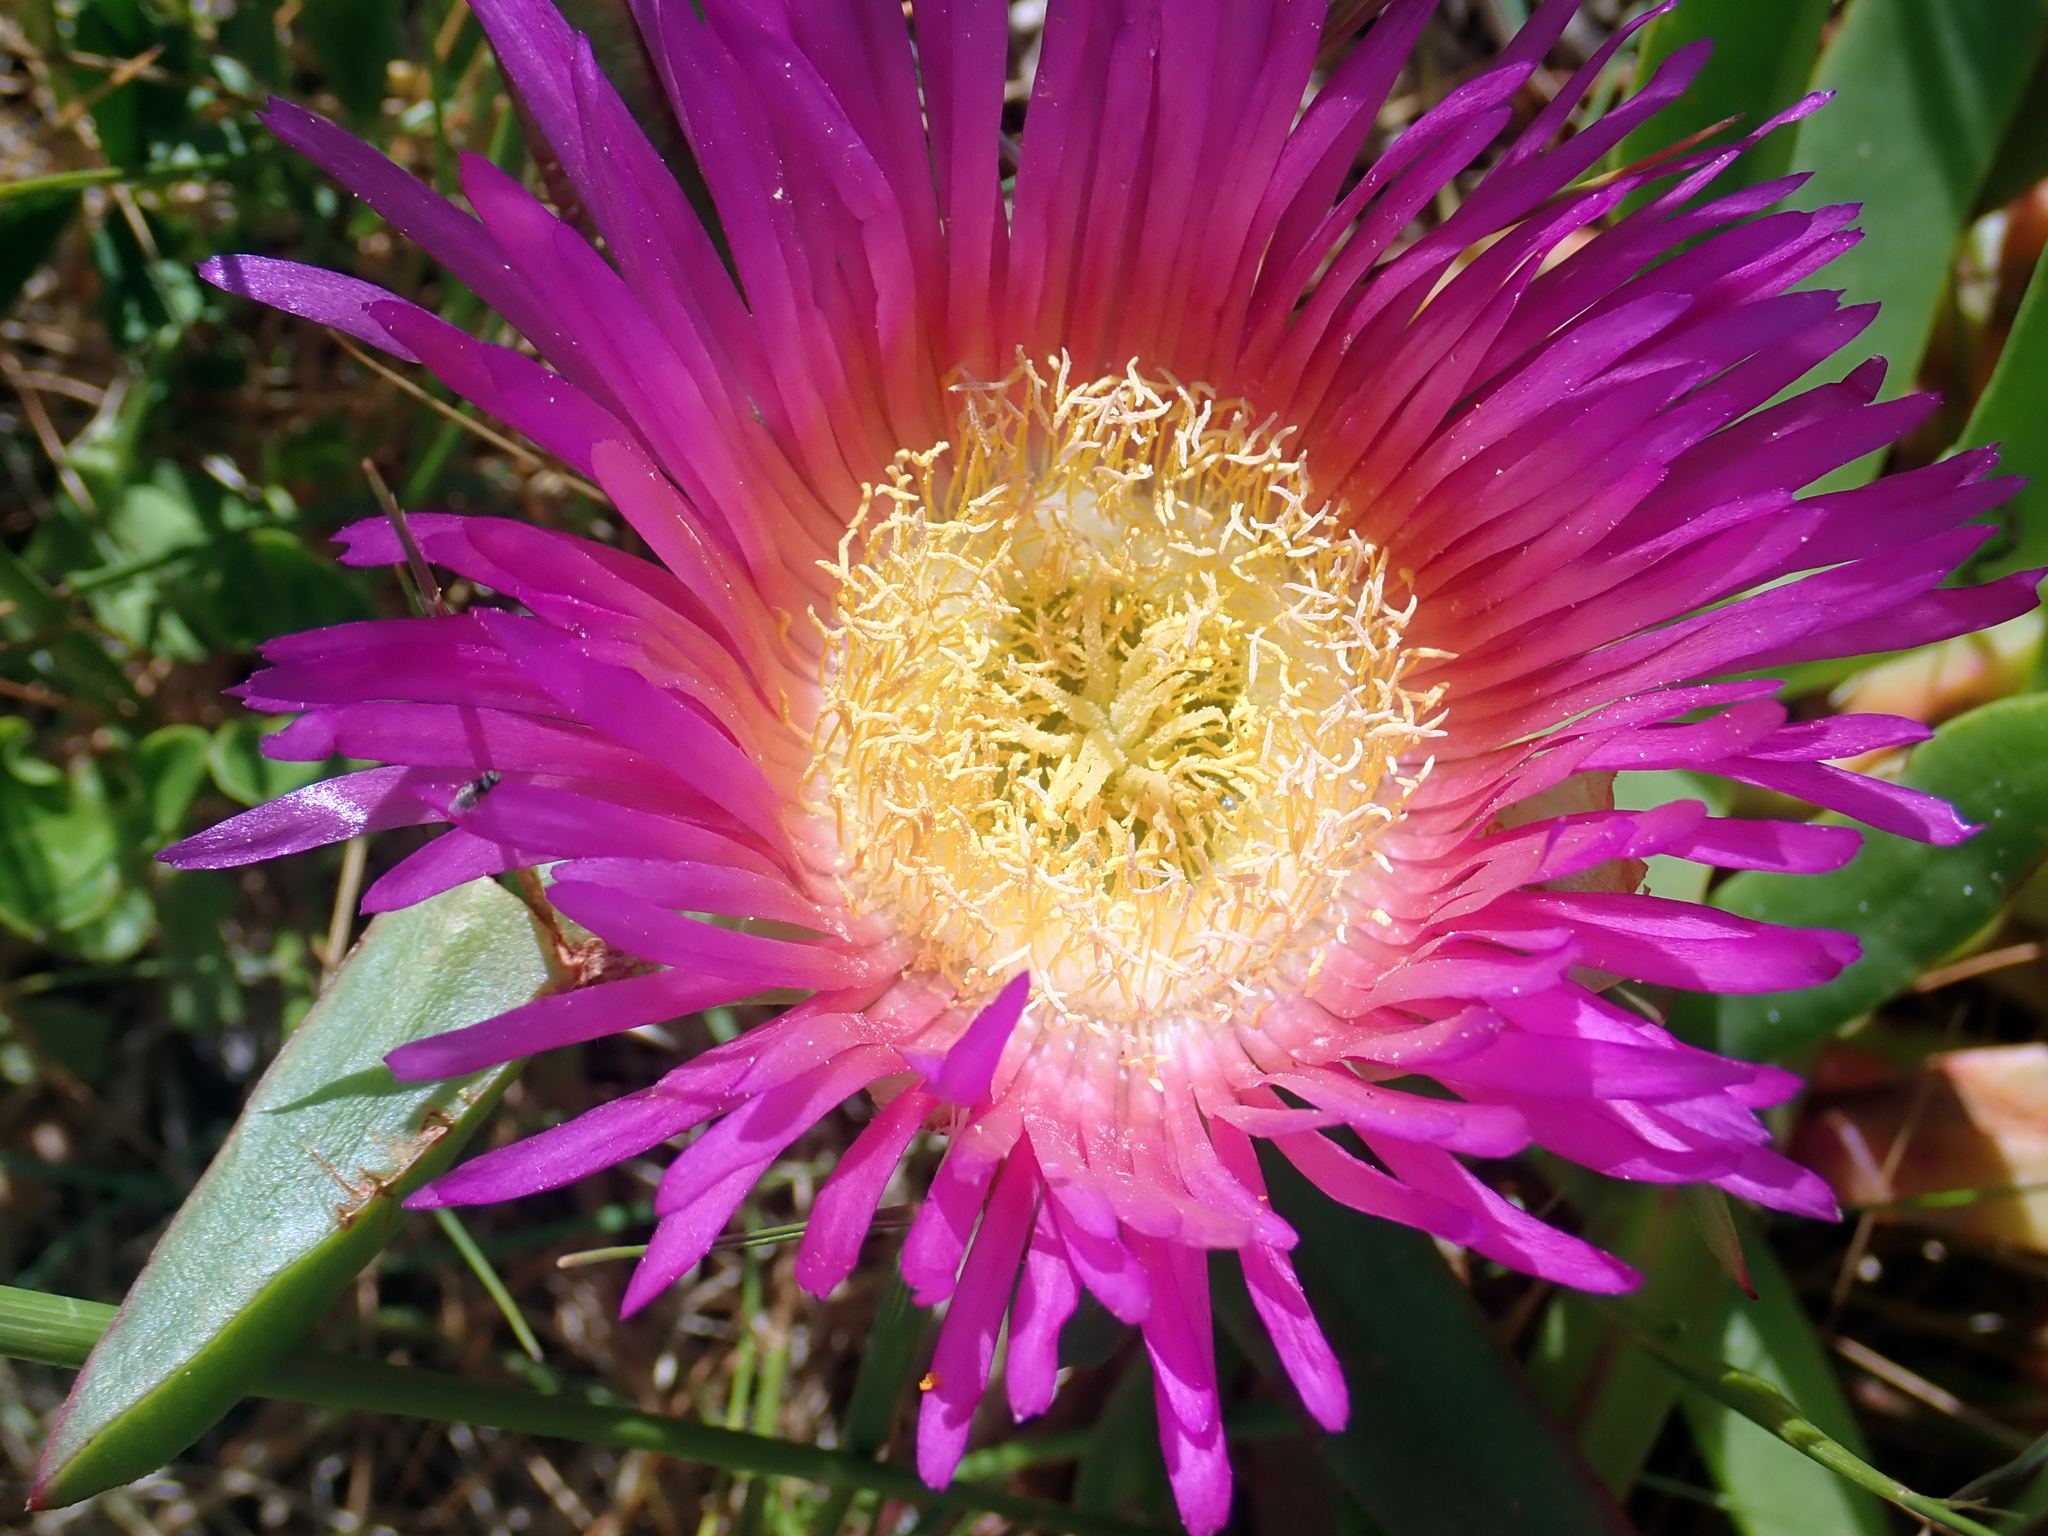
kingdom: Plantae
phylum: Tracheophyta
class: Magnoliopsida
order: Caryophyllales
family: Aizoaceae
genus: Carpobrotus
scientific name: Carpobrotus chilensis
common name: Sea fig
